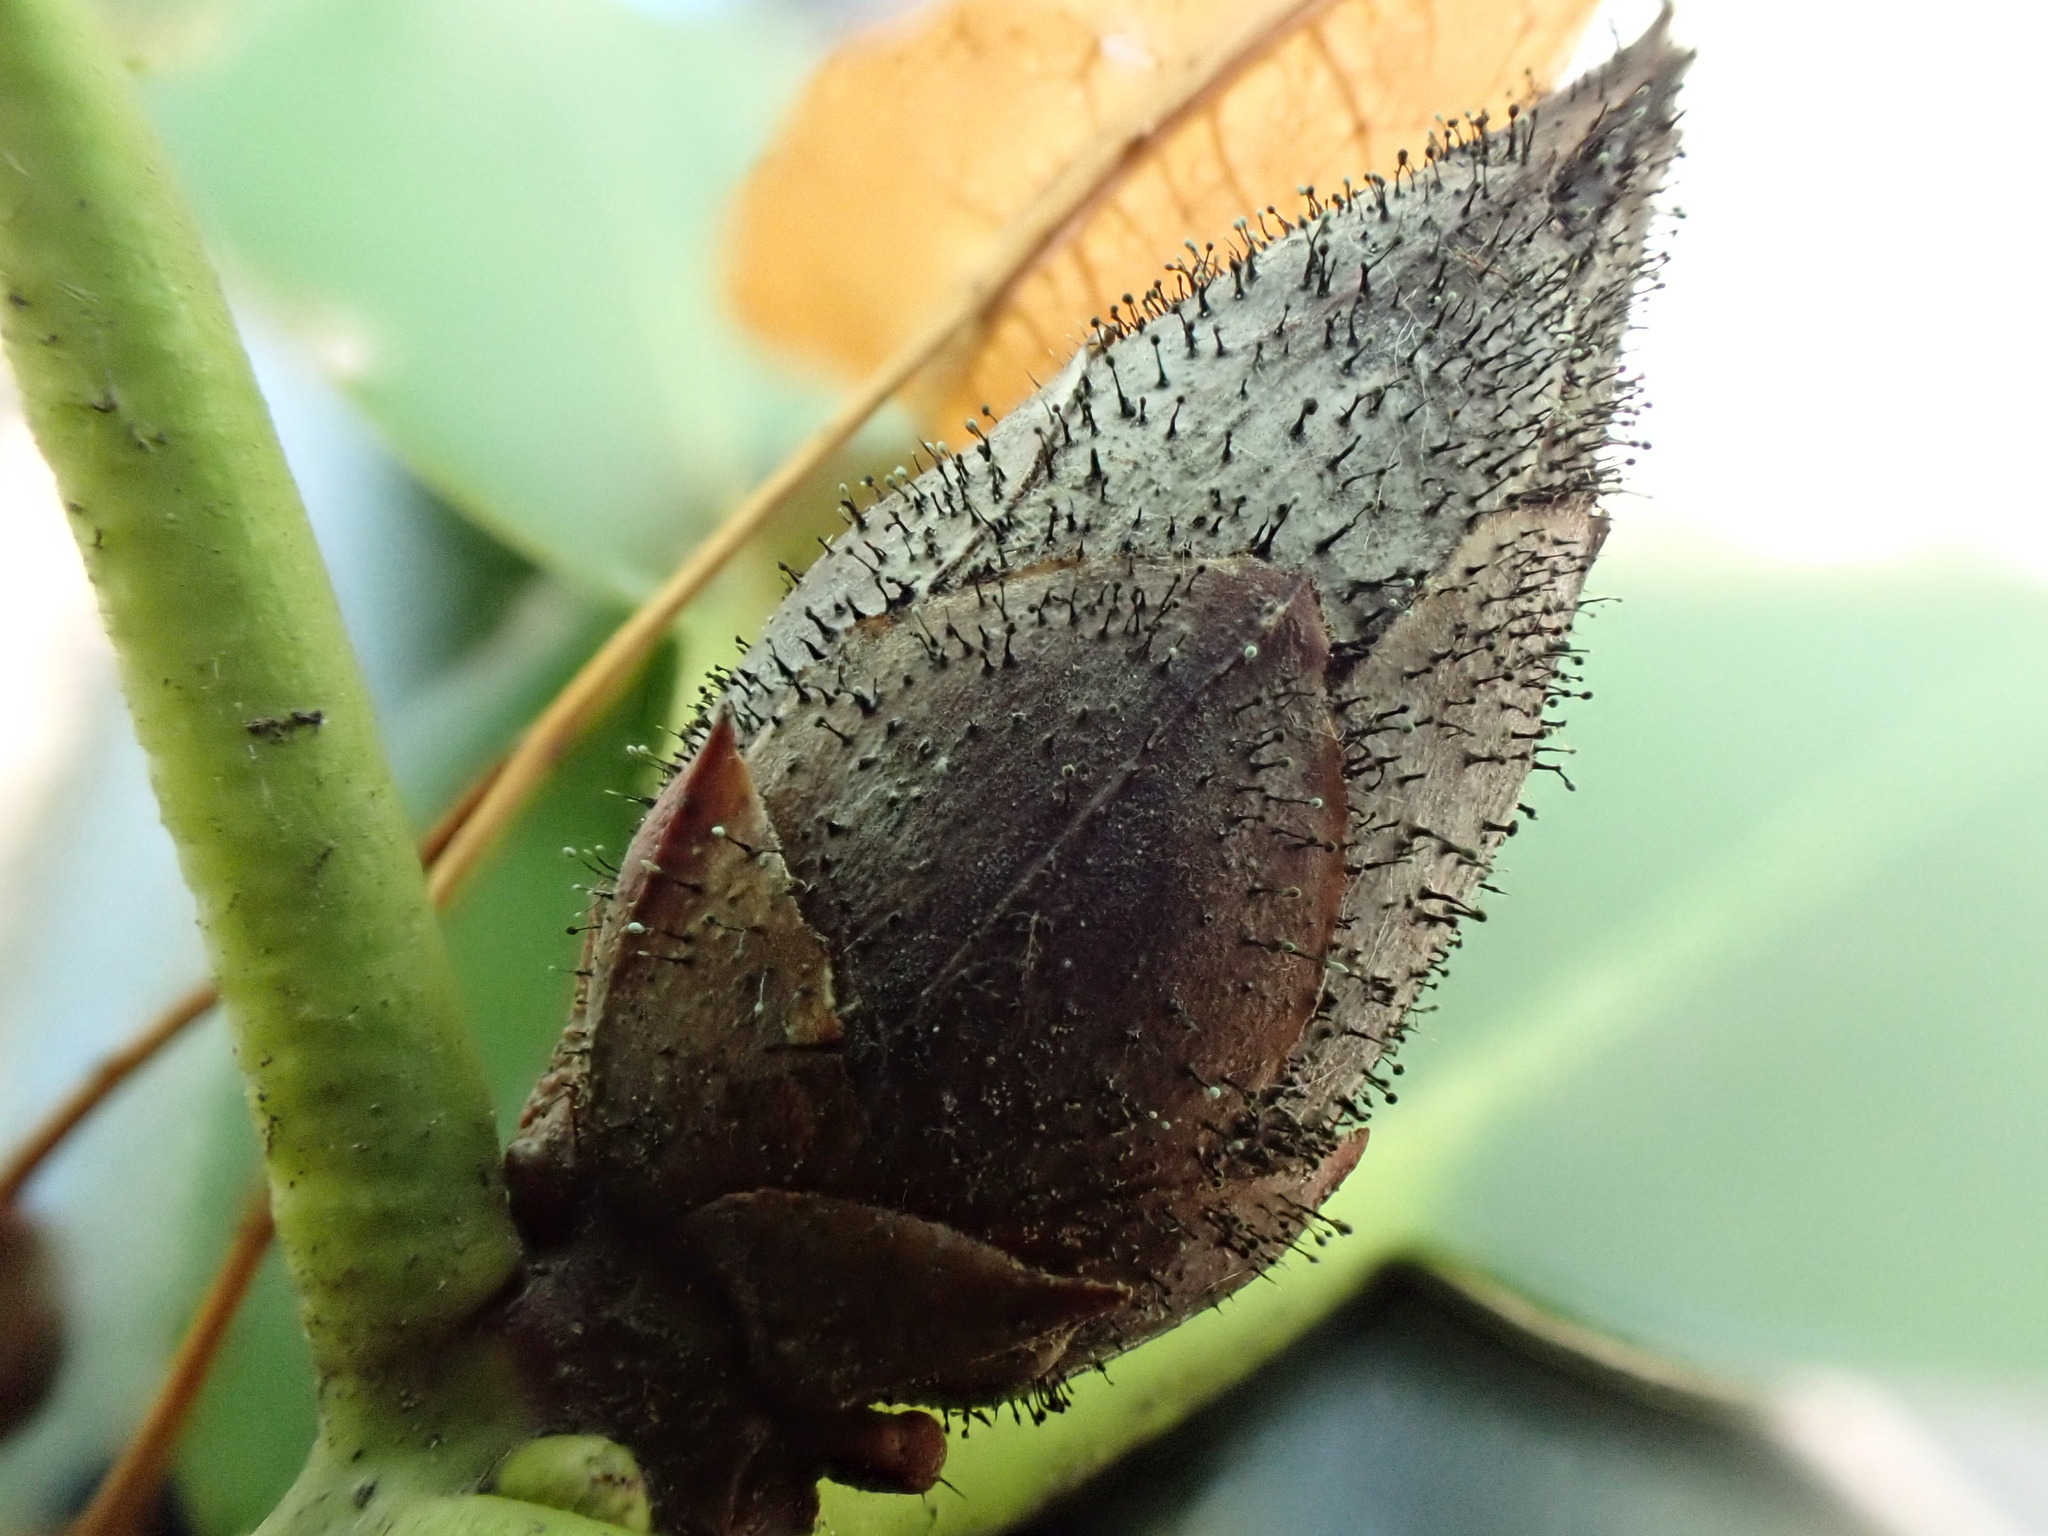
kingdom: Fungi
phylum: Ascomycota
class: Dothideomycetes
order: Pleosporales
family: Melanommataceae
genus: Seifertia
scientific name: Seifertia azaleae
